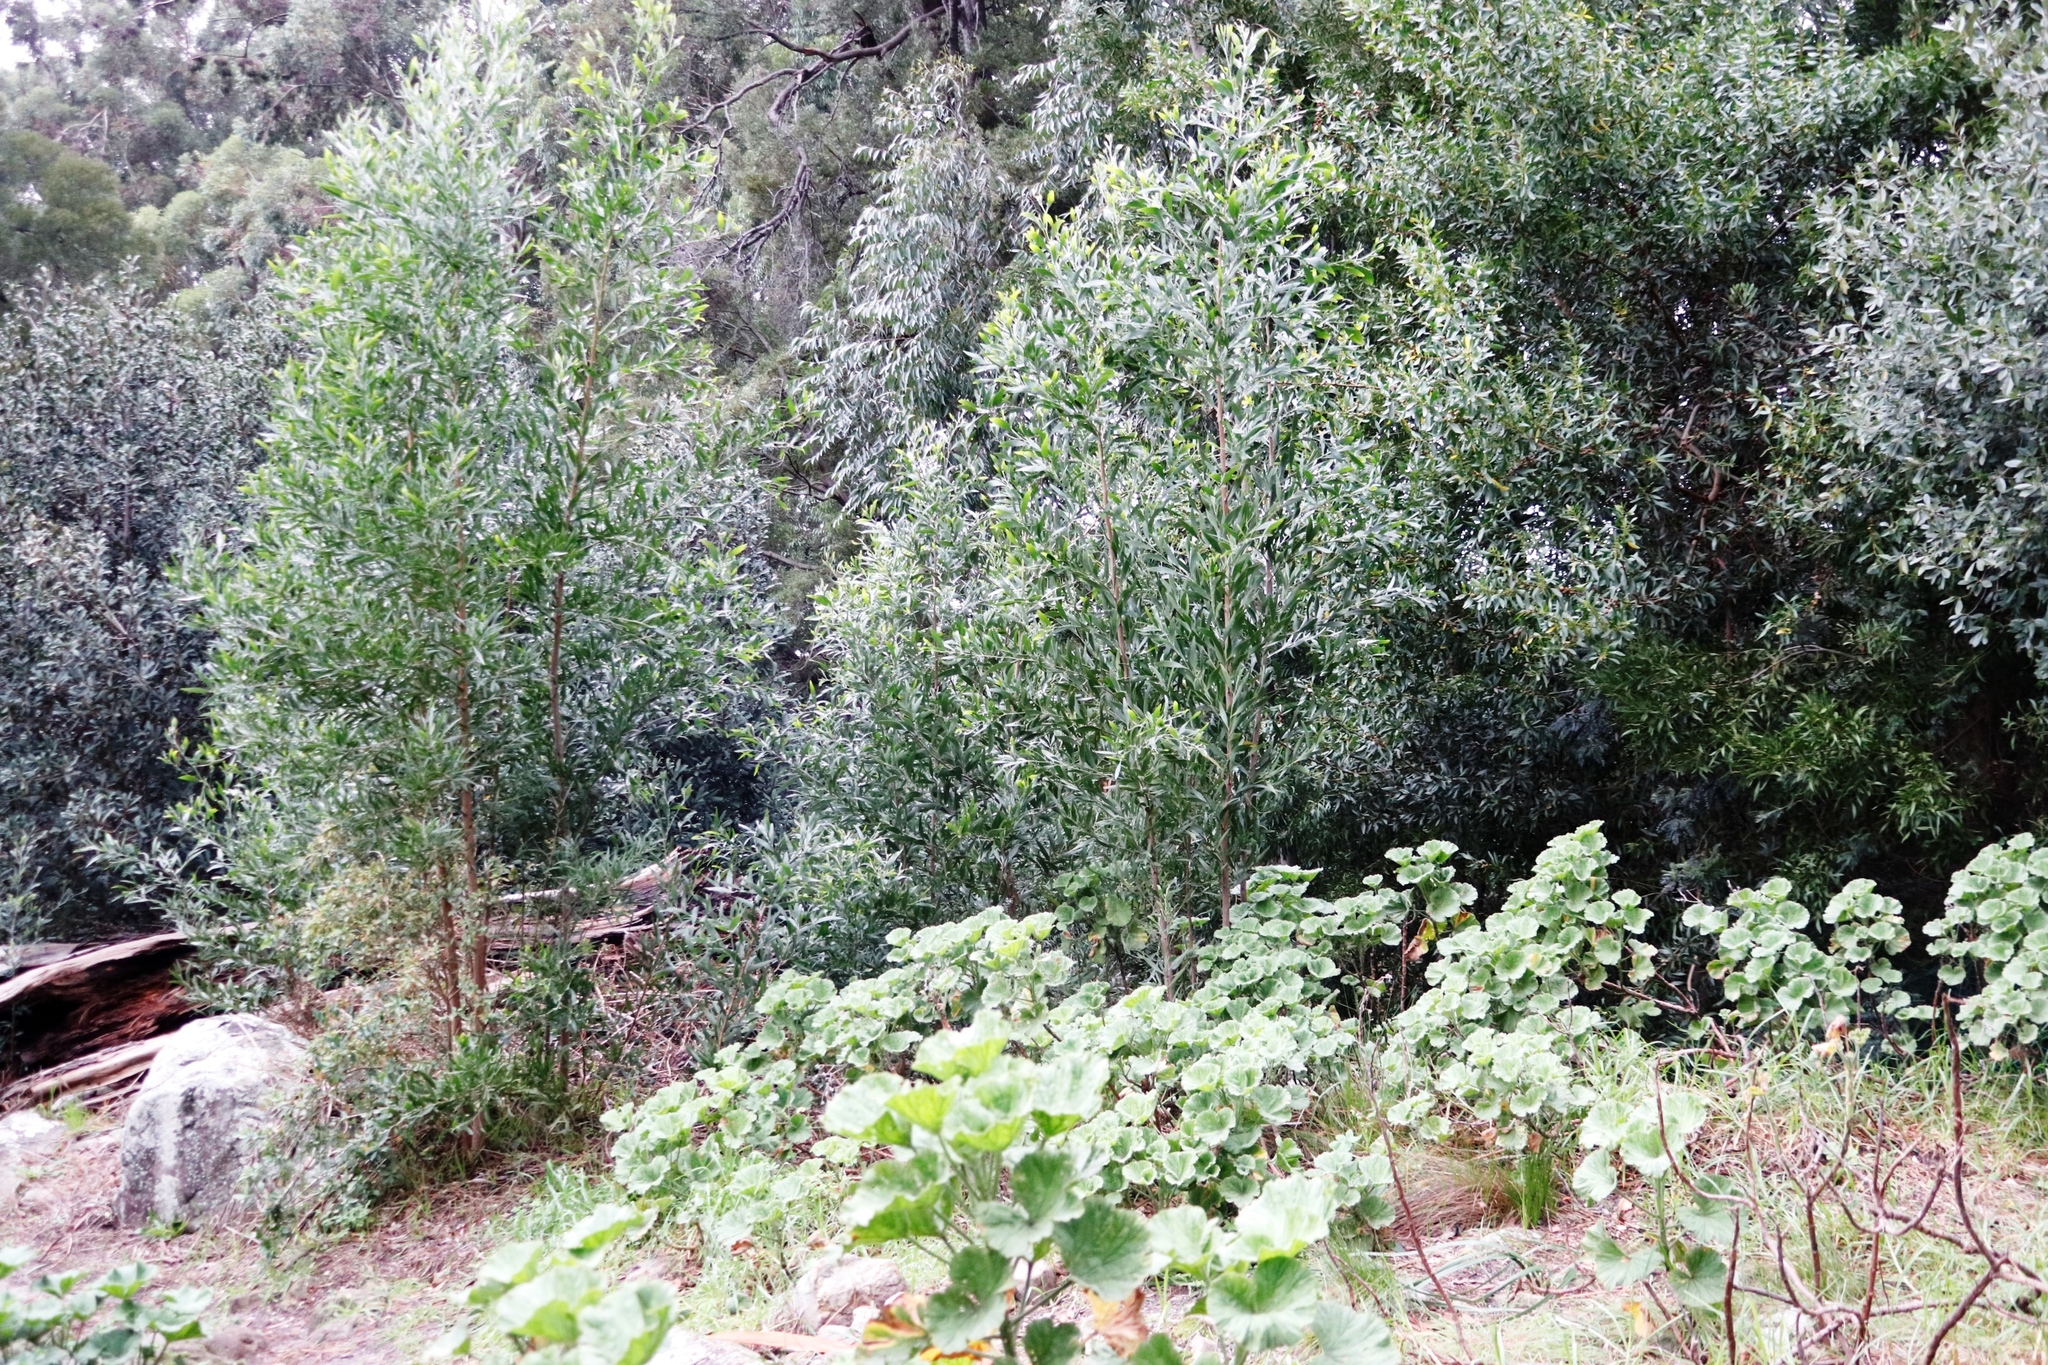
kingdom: Plantae
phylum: Tracheophyta
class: Magnoliopsida
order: Fabales
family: Fabaceae
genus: Acacia
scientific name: Acacia melanoxylon
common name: Blackwood
